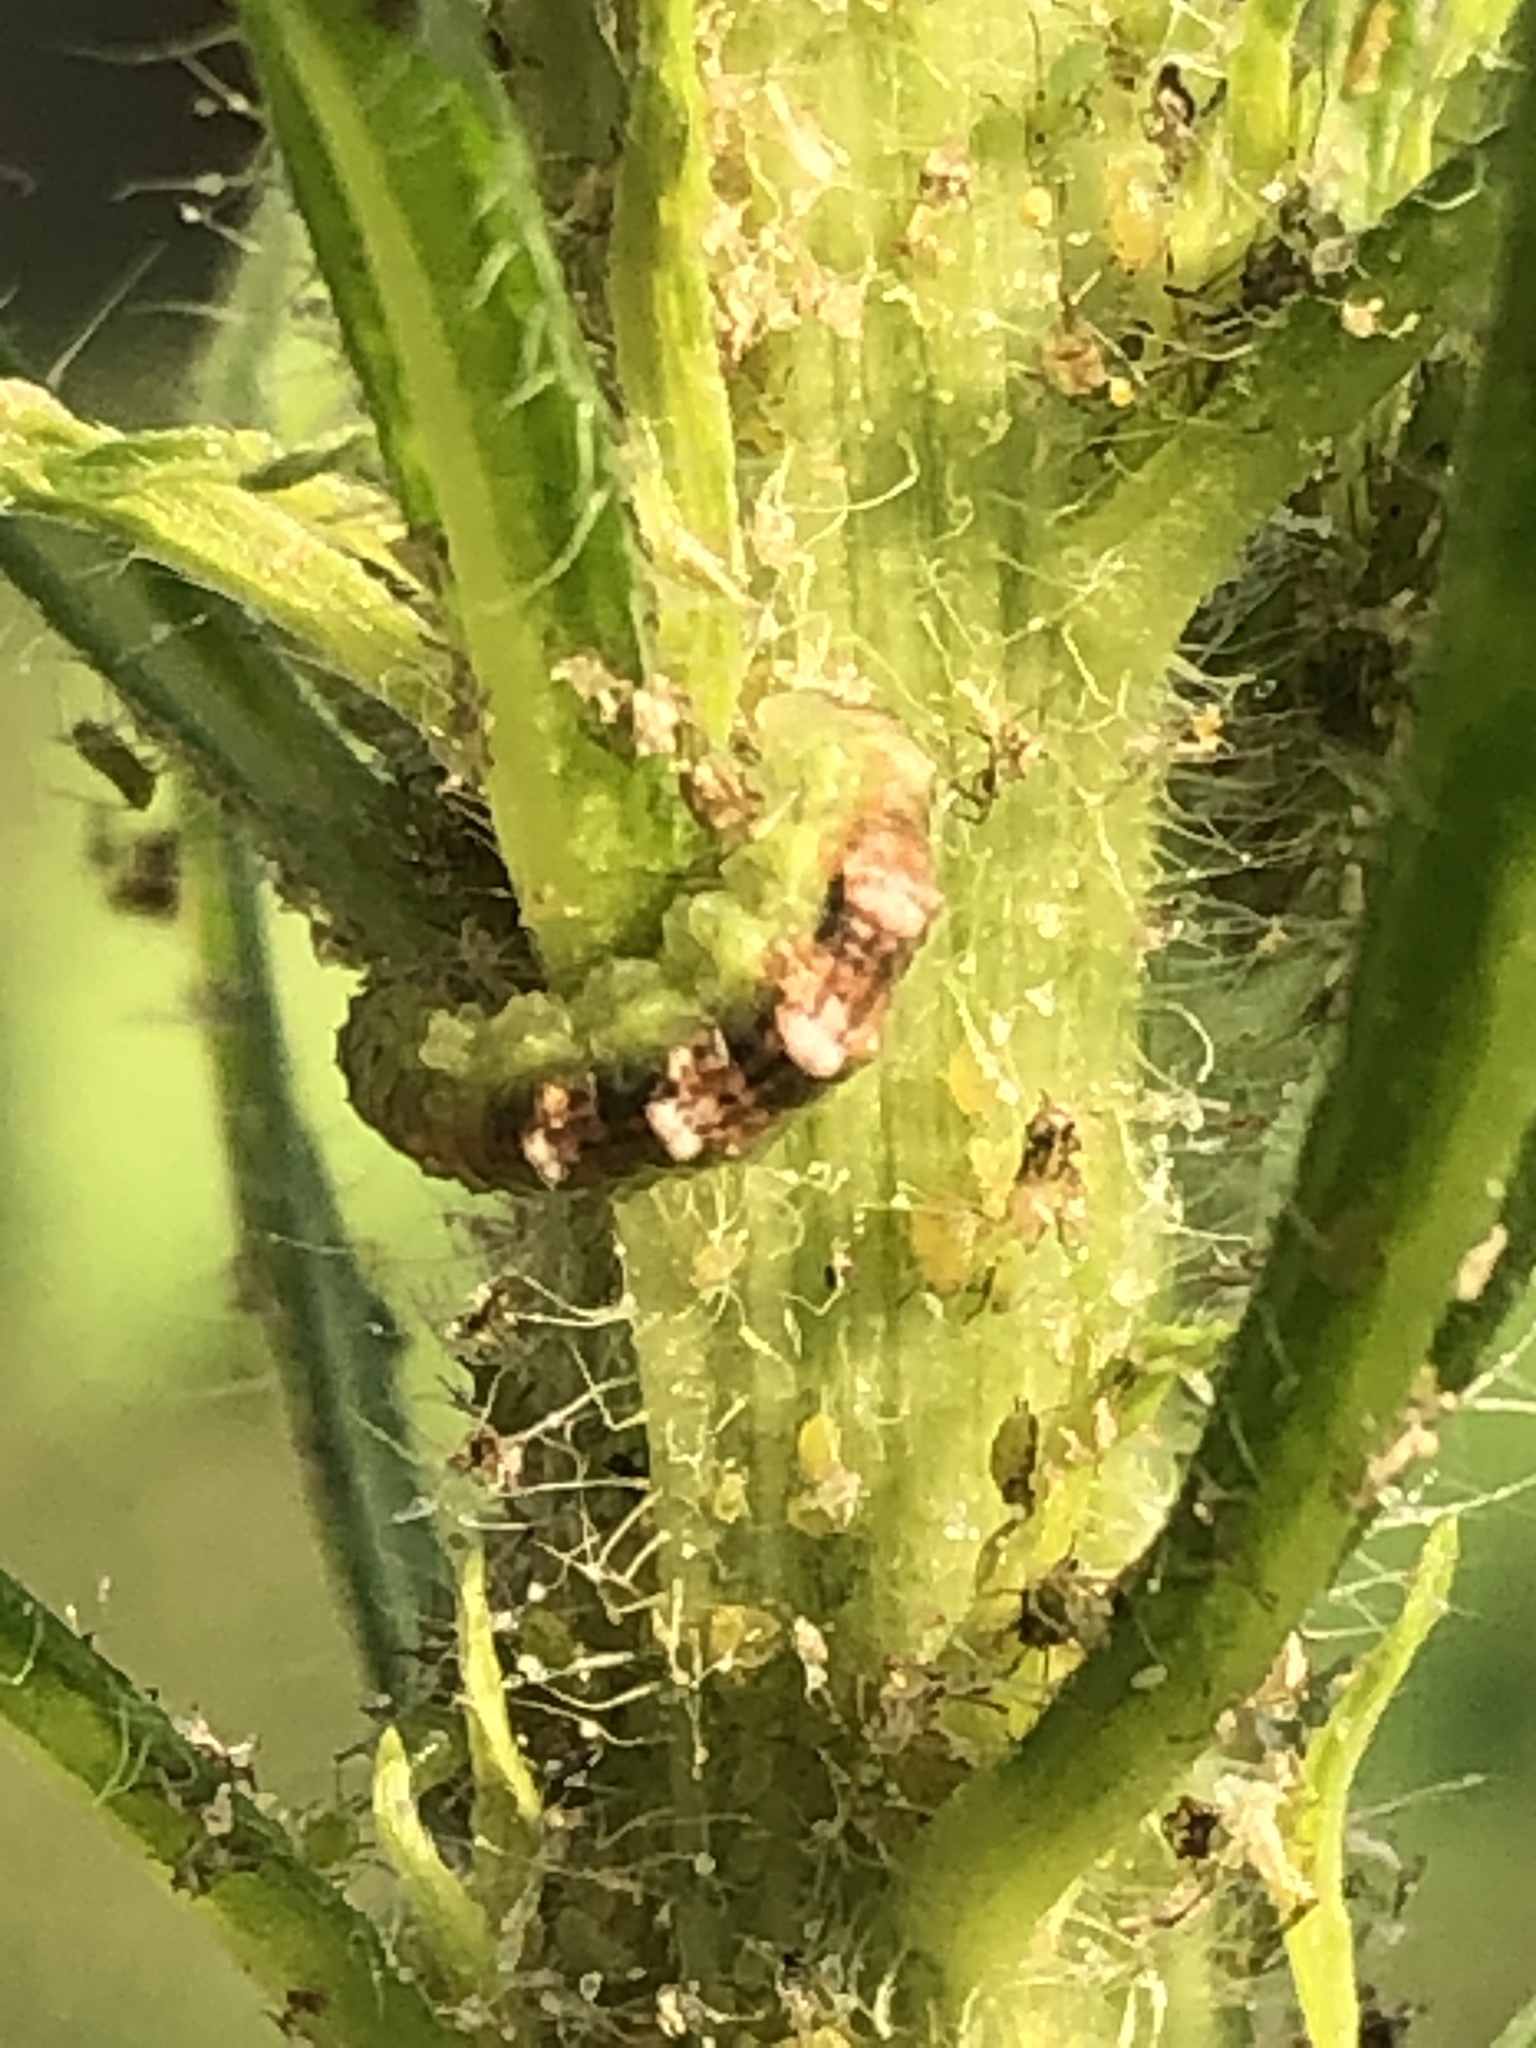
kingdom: Animalia
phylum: Arthropoda
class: Insecta
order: Diptera
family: Syrphidae
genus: Eupeodes
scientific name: Eupeodes pomus
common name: Short-tailed aphideater
